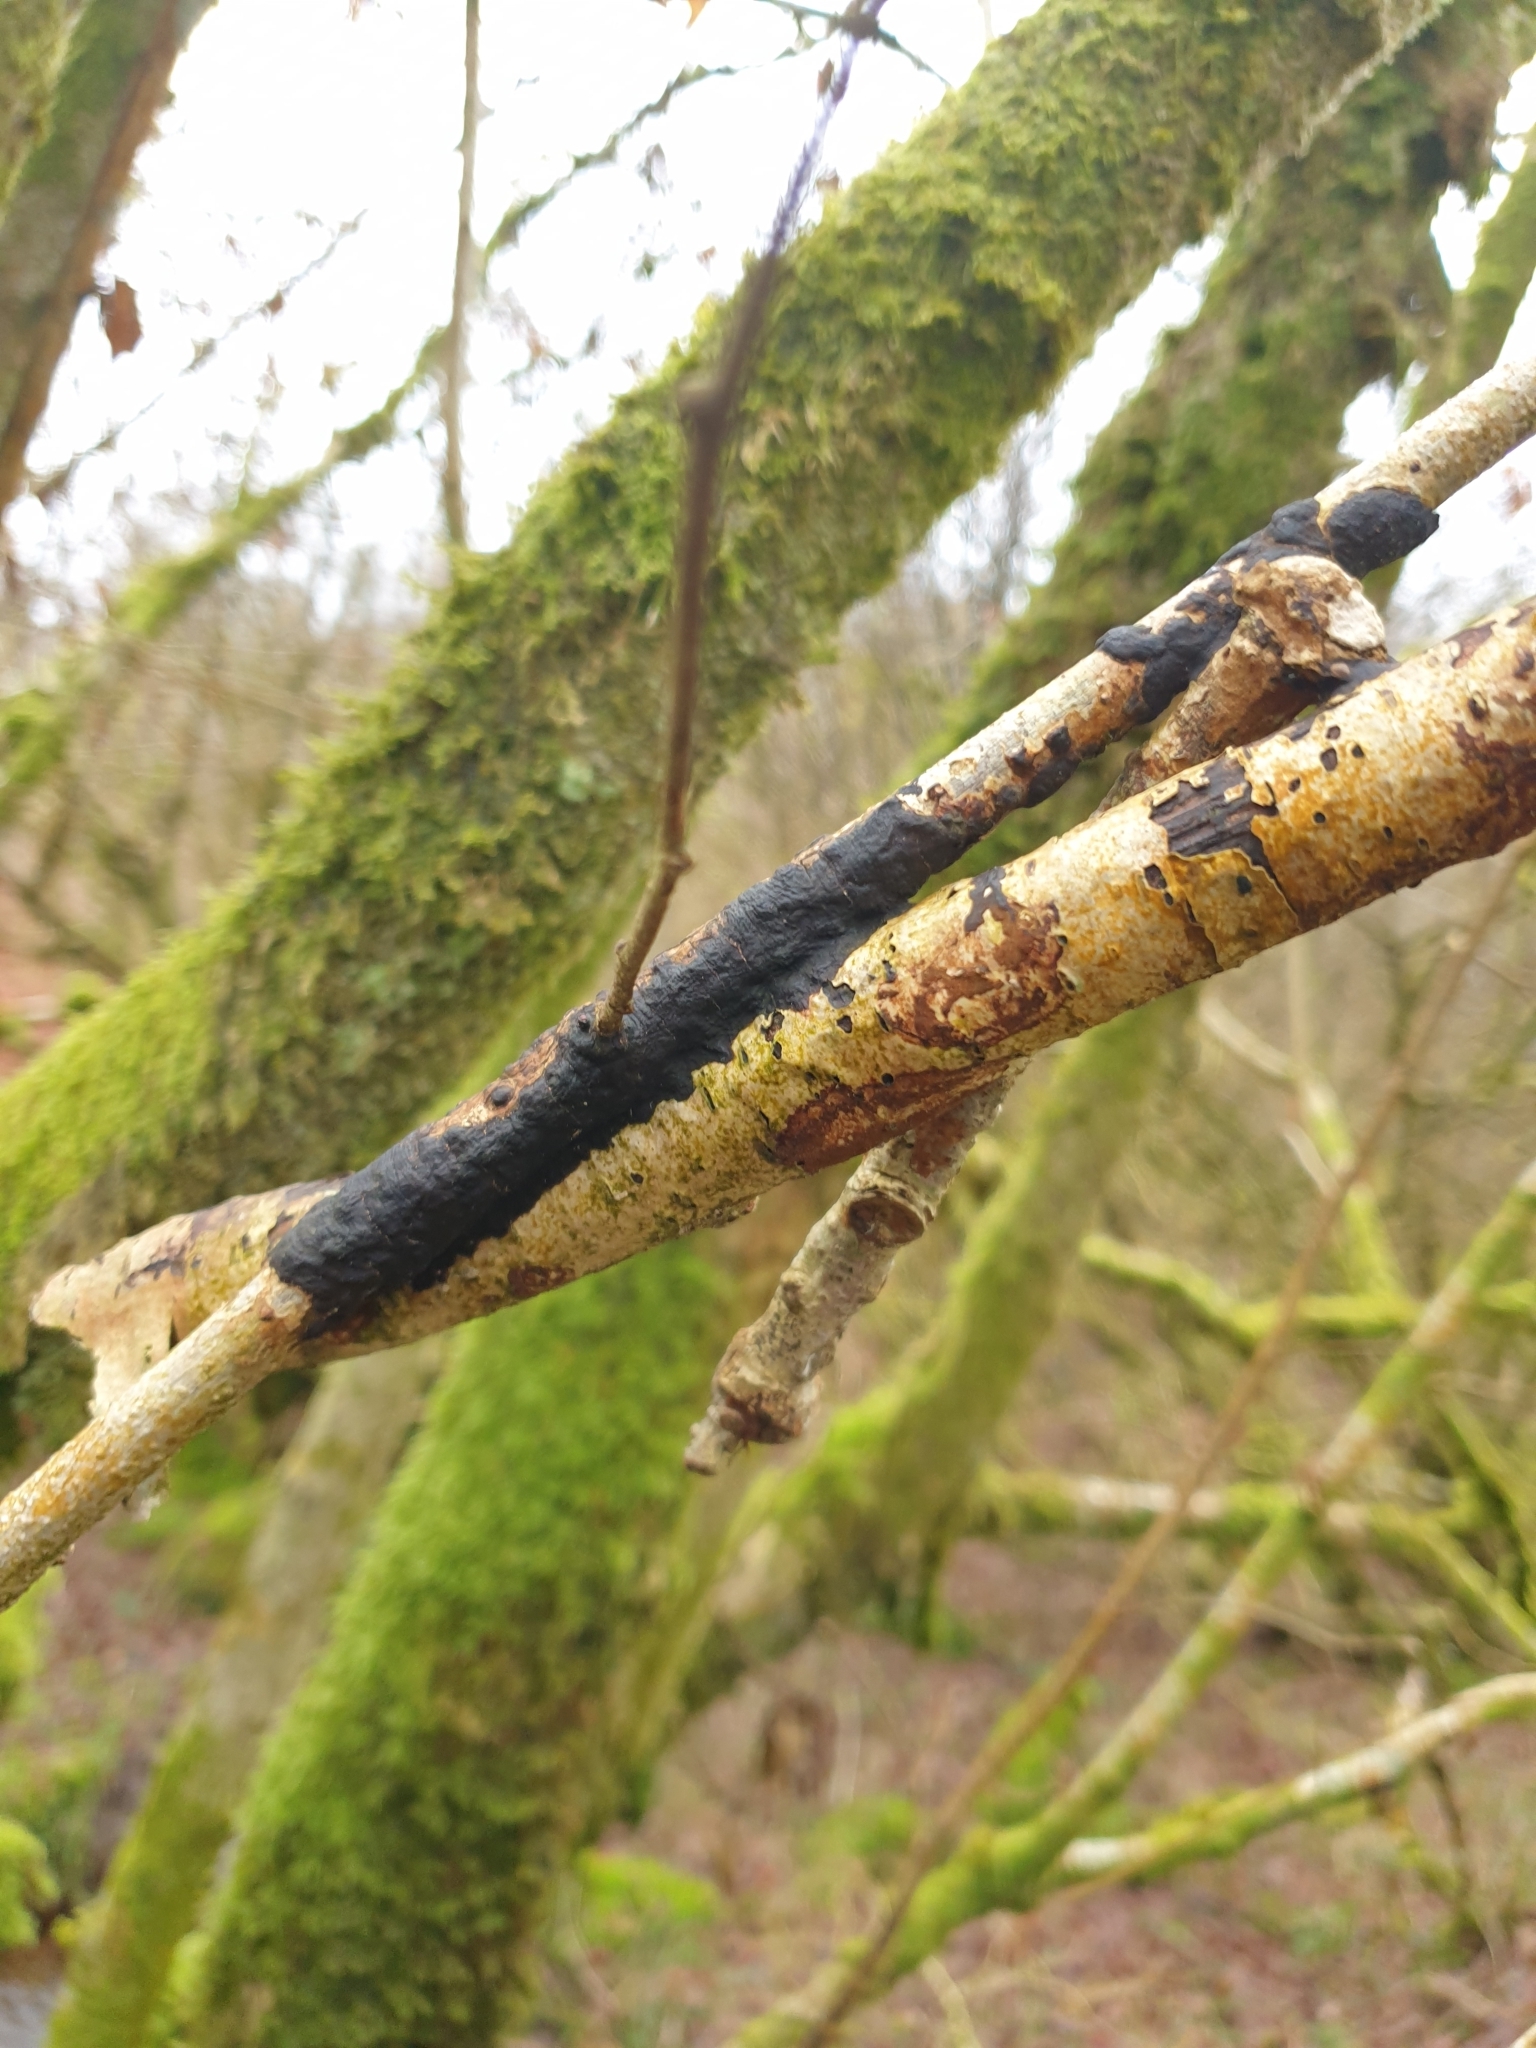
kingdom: Fungi
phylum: Basidiomycota
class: Agaricomycetes
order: Hymenochaetales
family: Hymenochaetaceae
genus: Hydnoporia
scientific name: Hydnoporia corrugata
